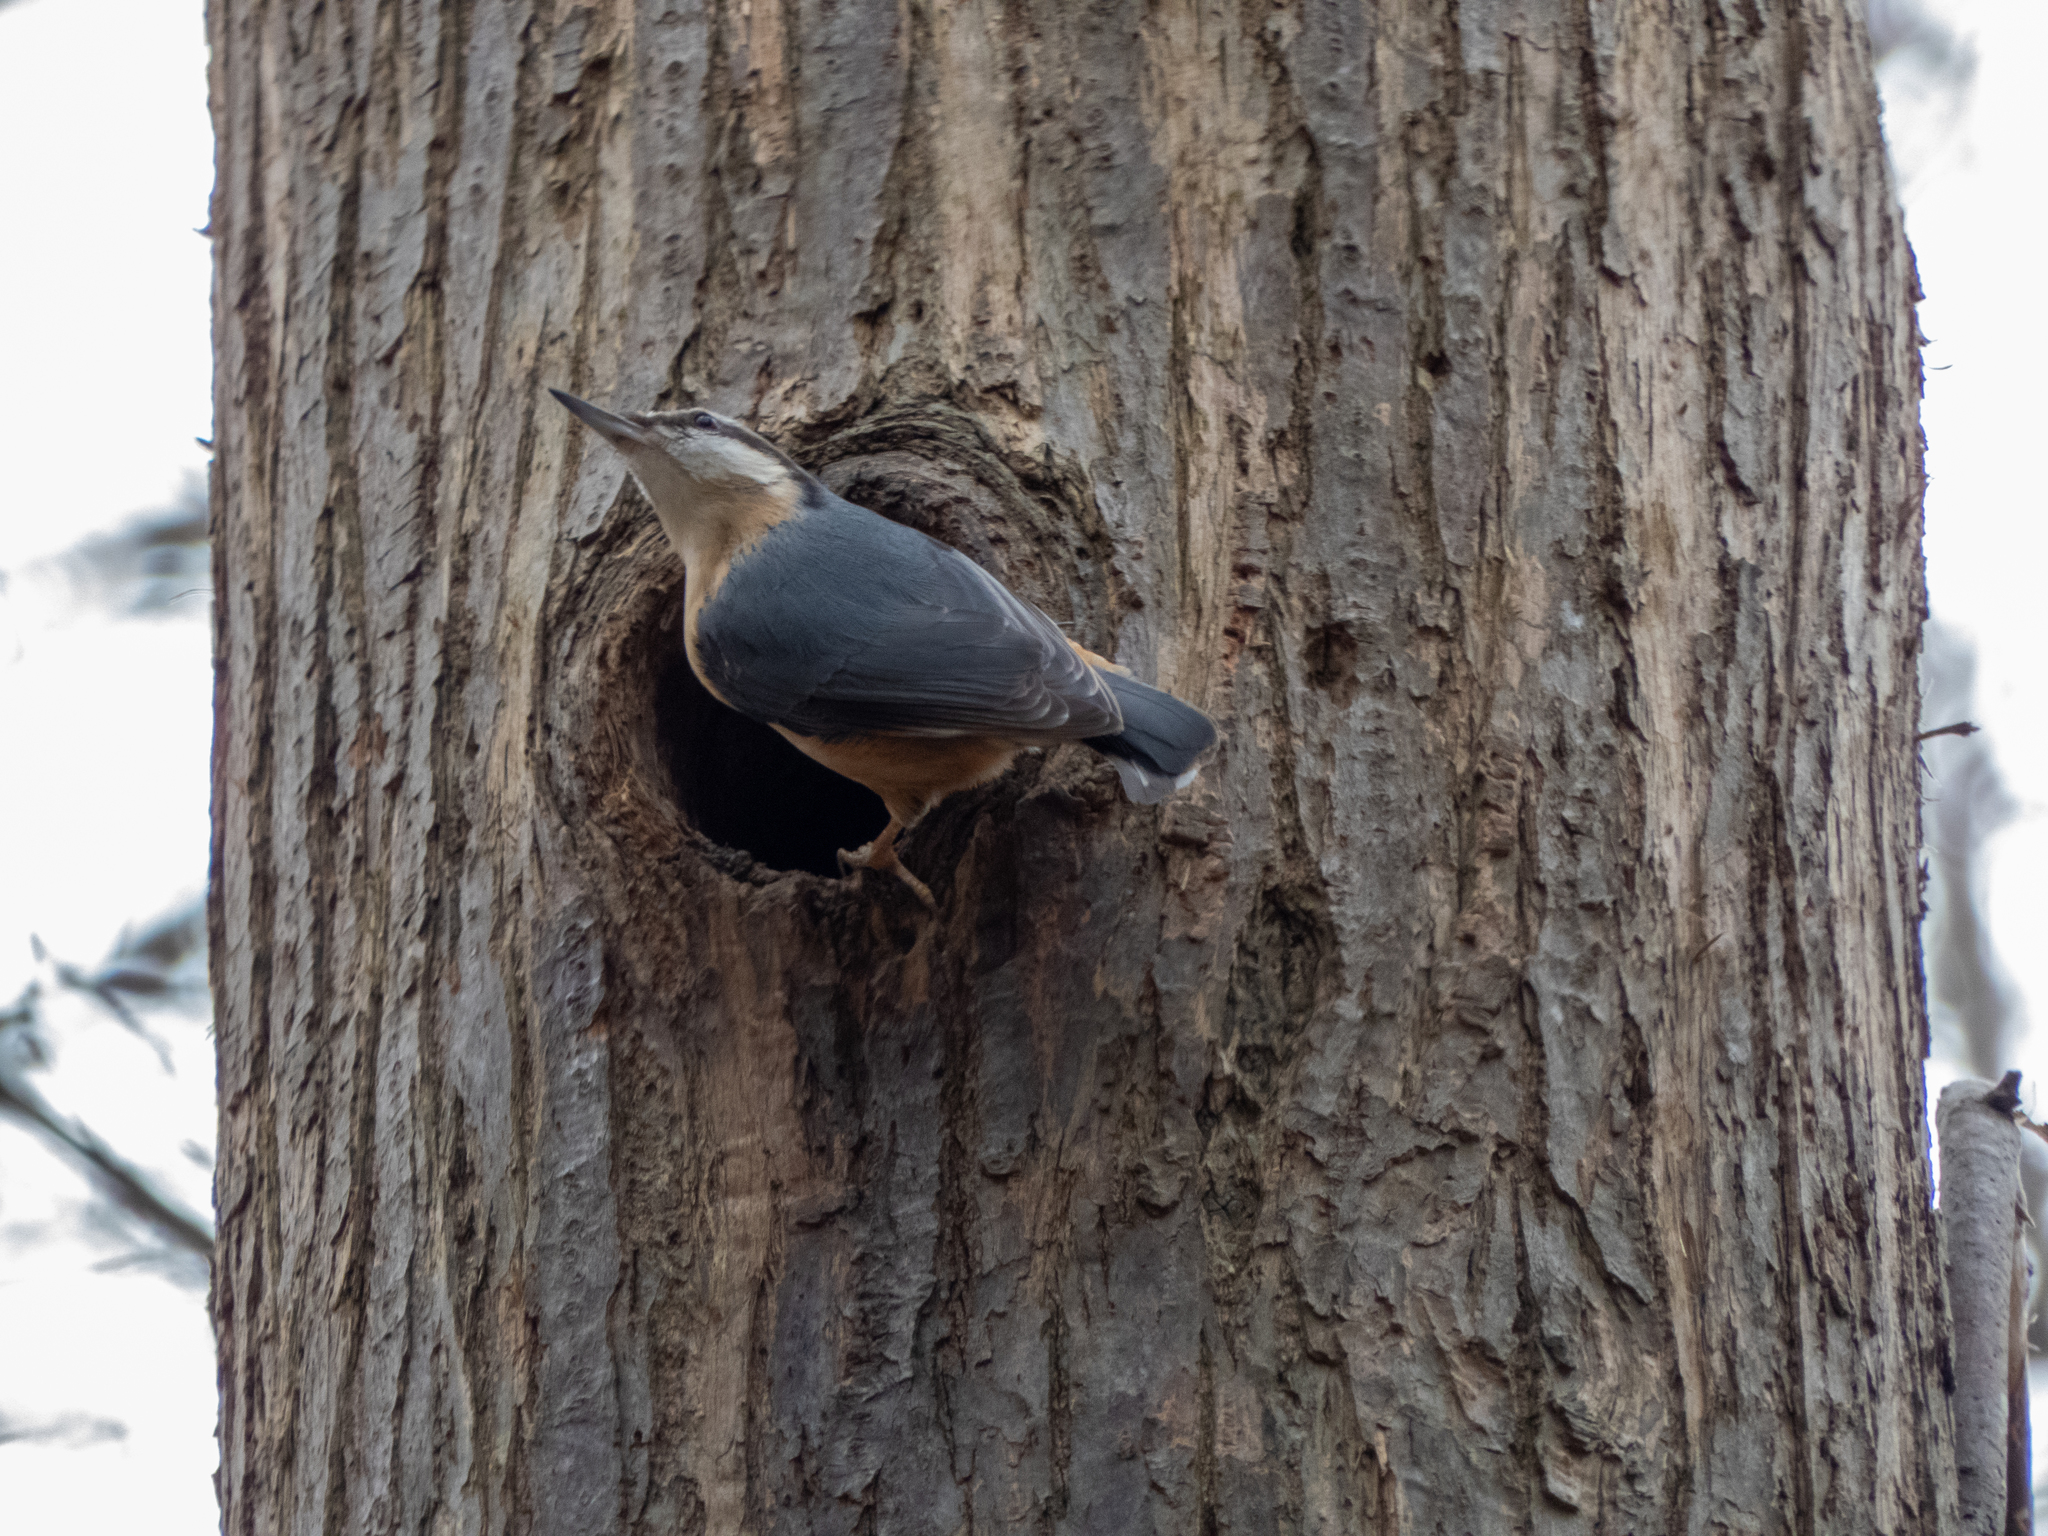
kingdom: Animalia
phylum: Chordata
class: Aves
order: Passeriformes
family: Sittidae
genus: Sitta
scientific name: Sitta europaea
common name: Eurasian nuthatch
